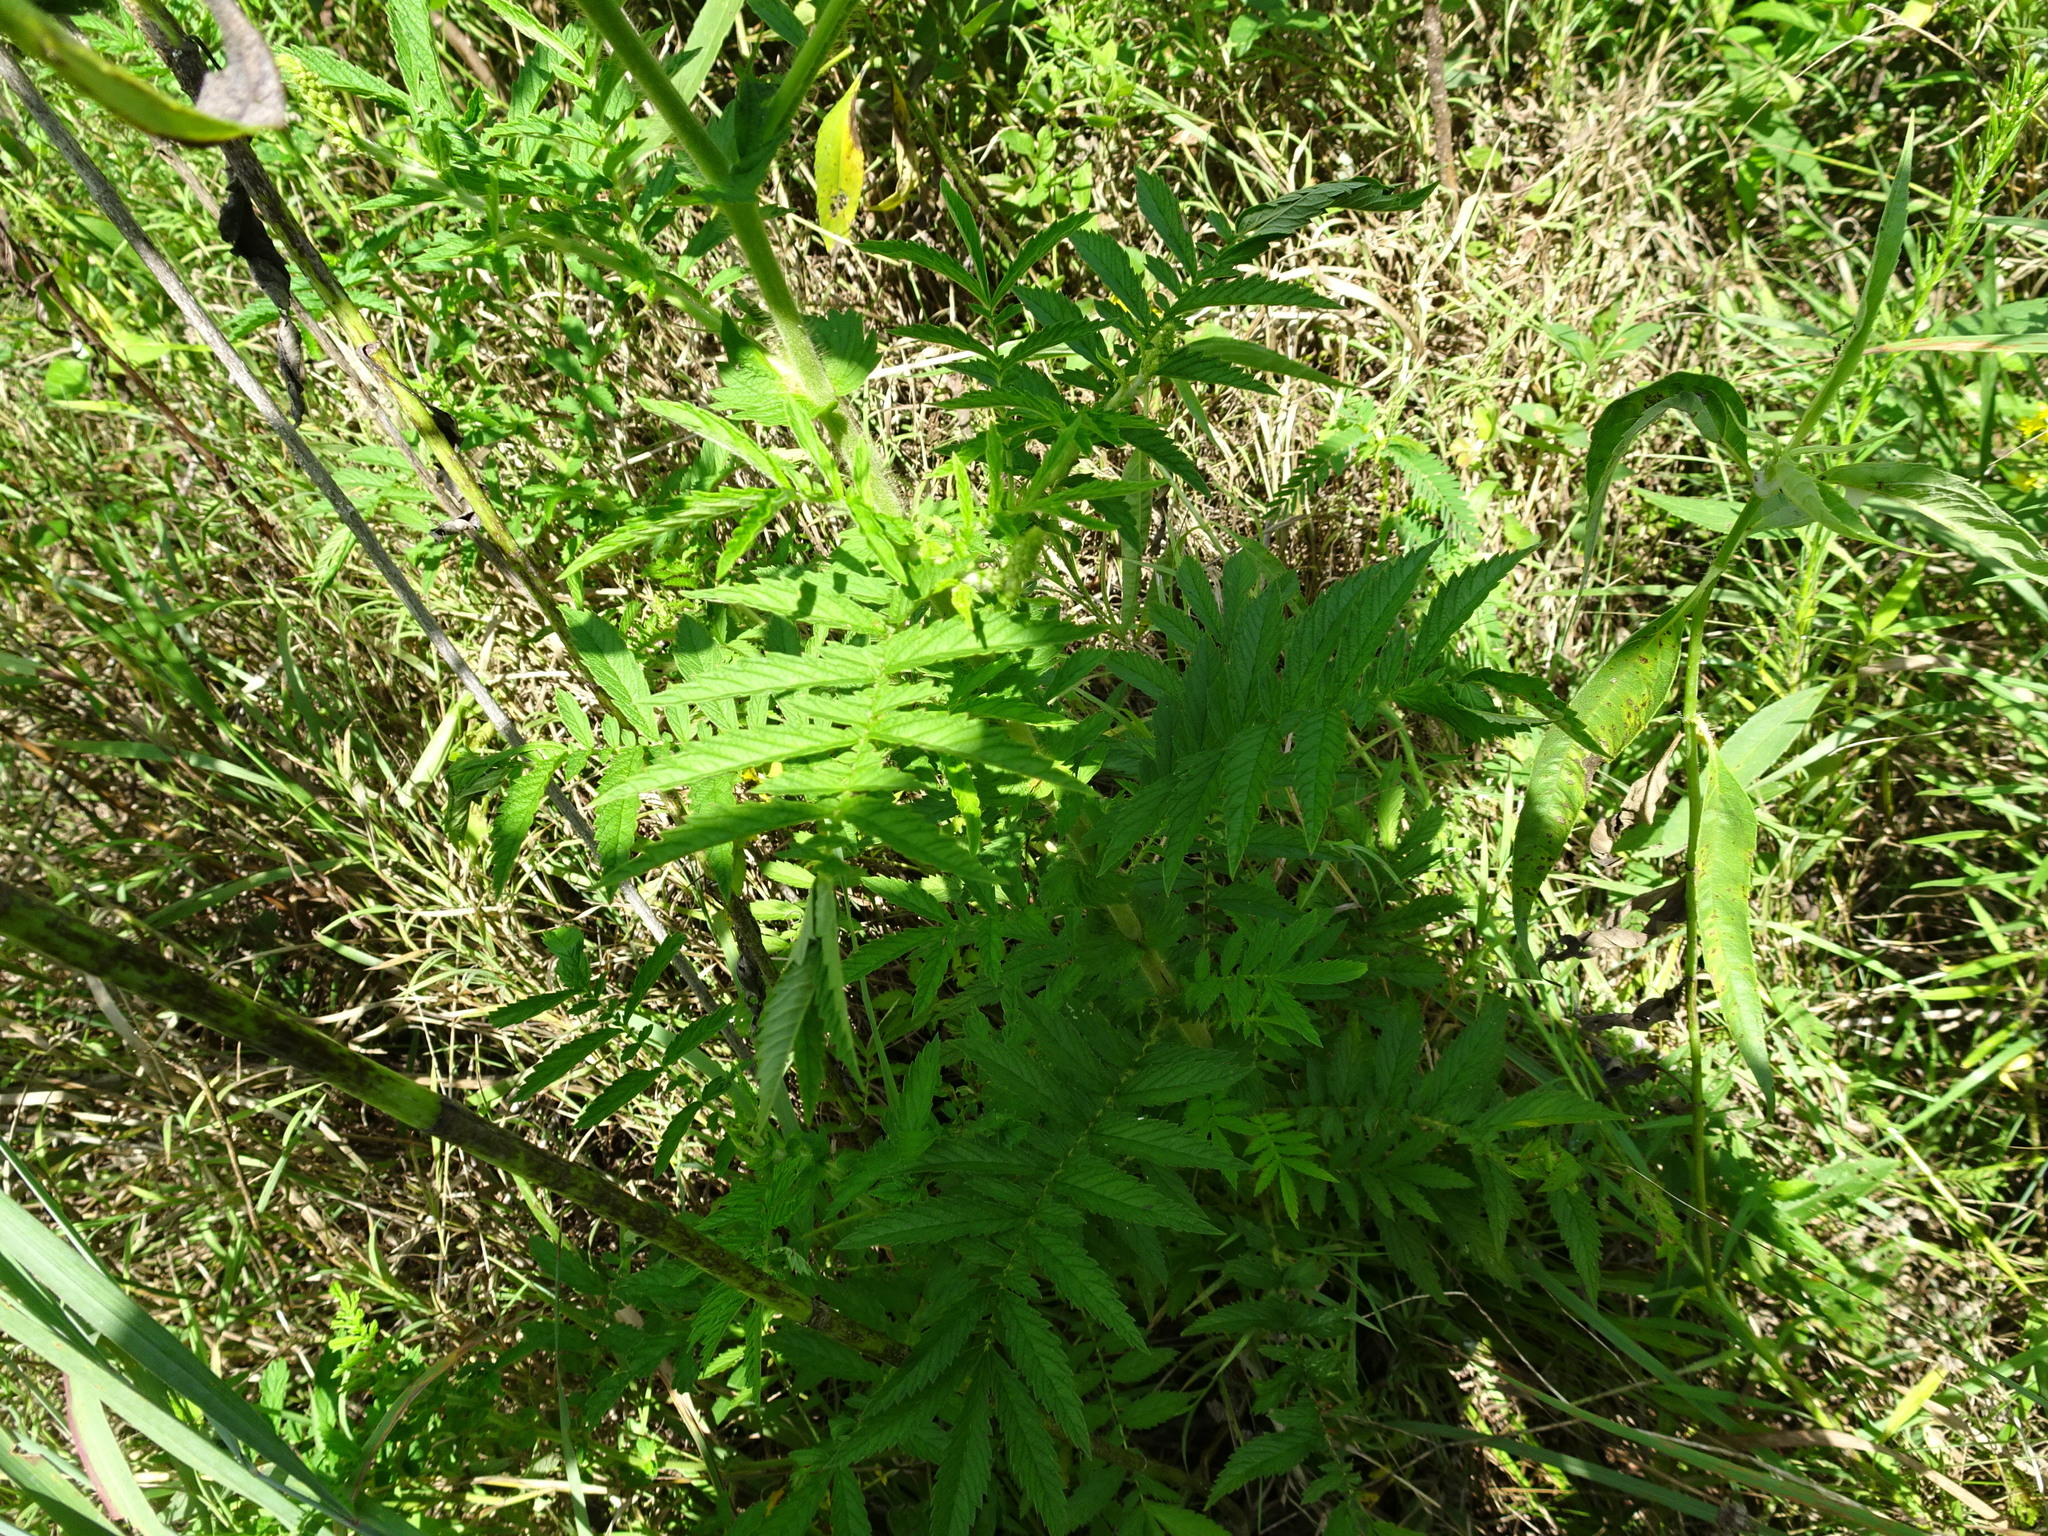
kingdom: Plantae
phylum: Tracheophyta
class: Magnoliopsida
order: Rosales
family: Rosaceae
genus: Agrimonia
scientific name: Agrimonia parviflora
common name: Harvest-lice
